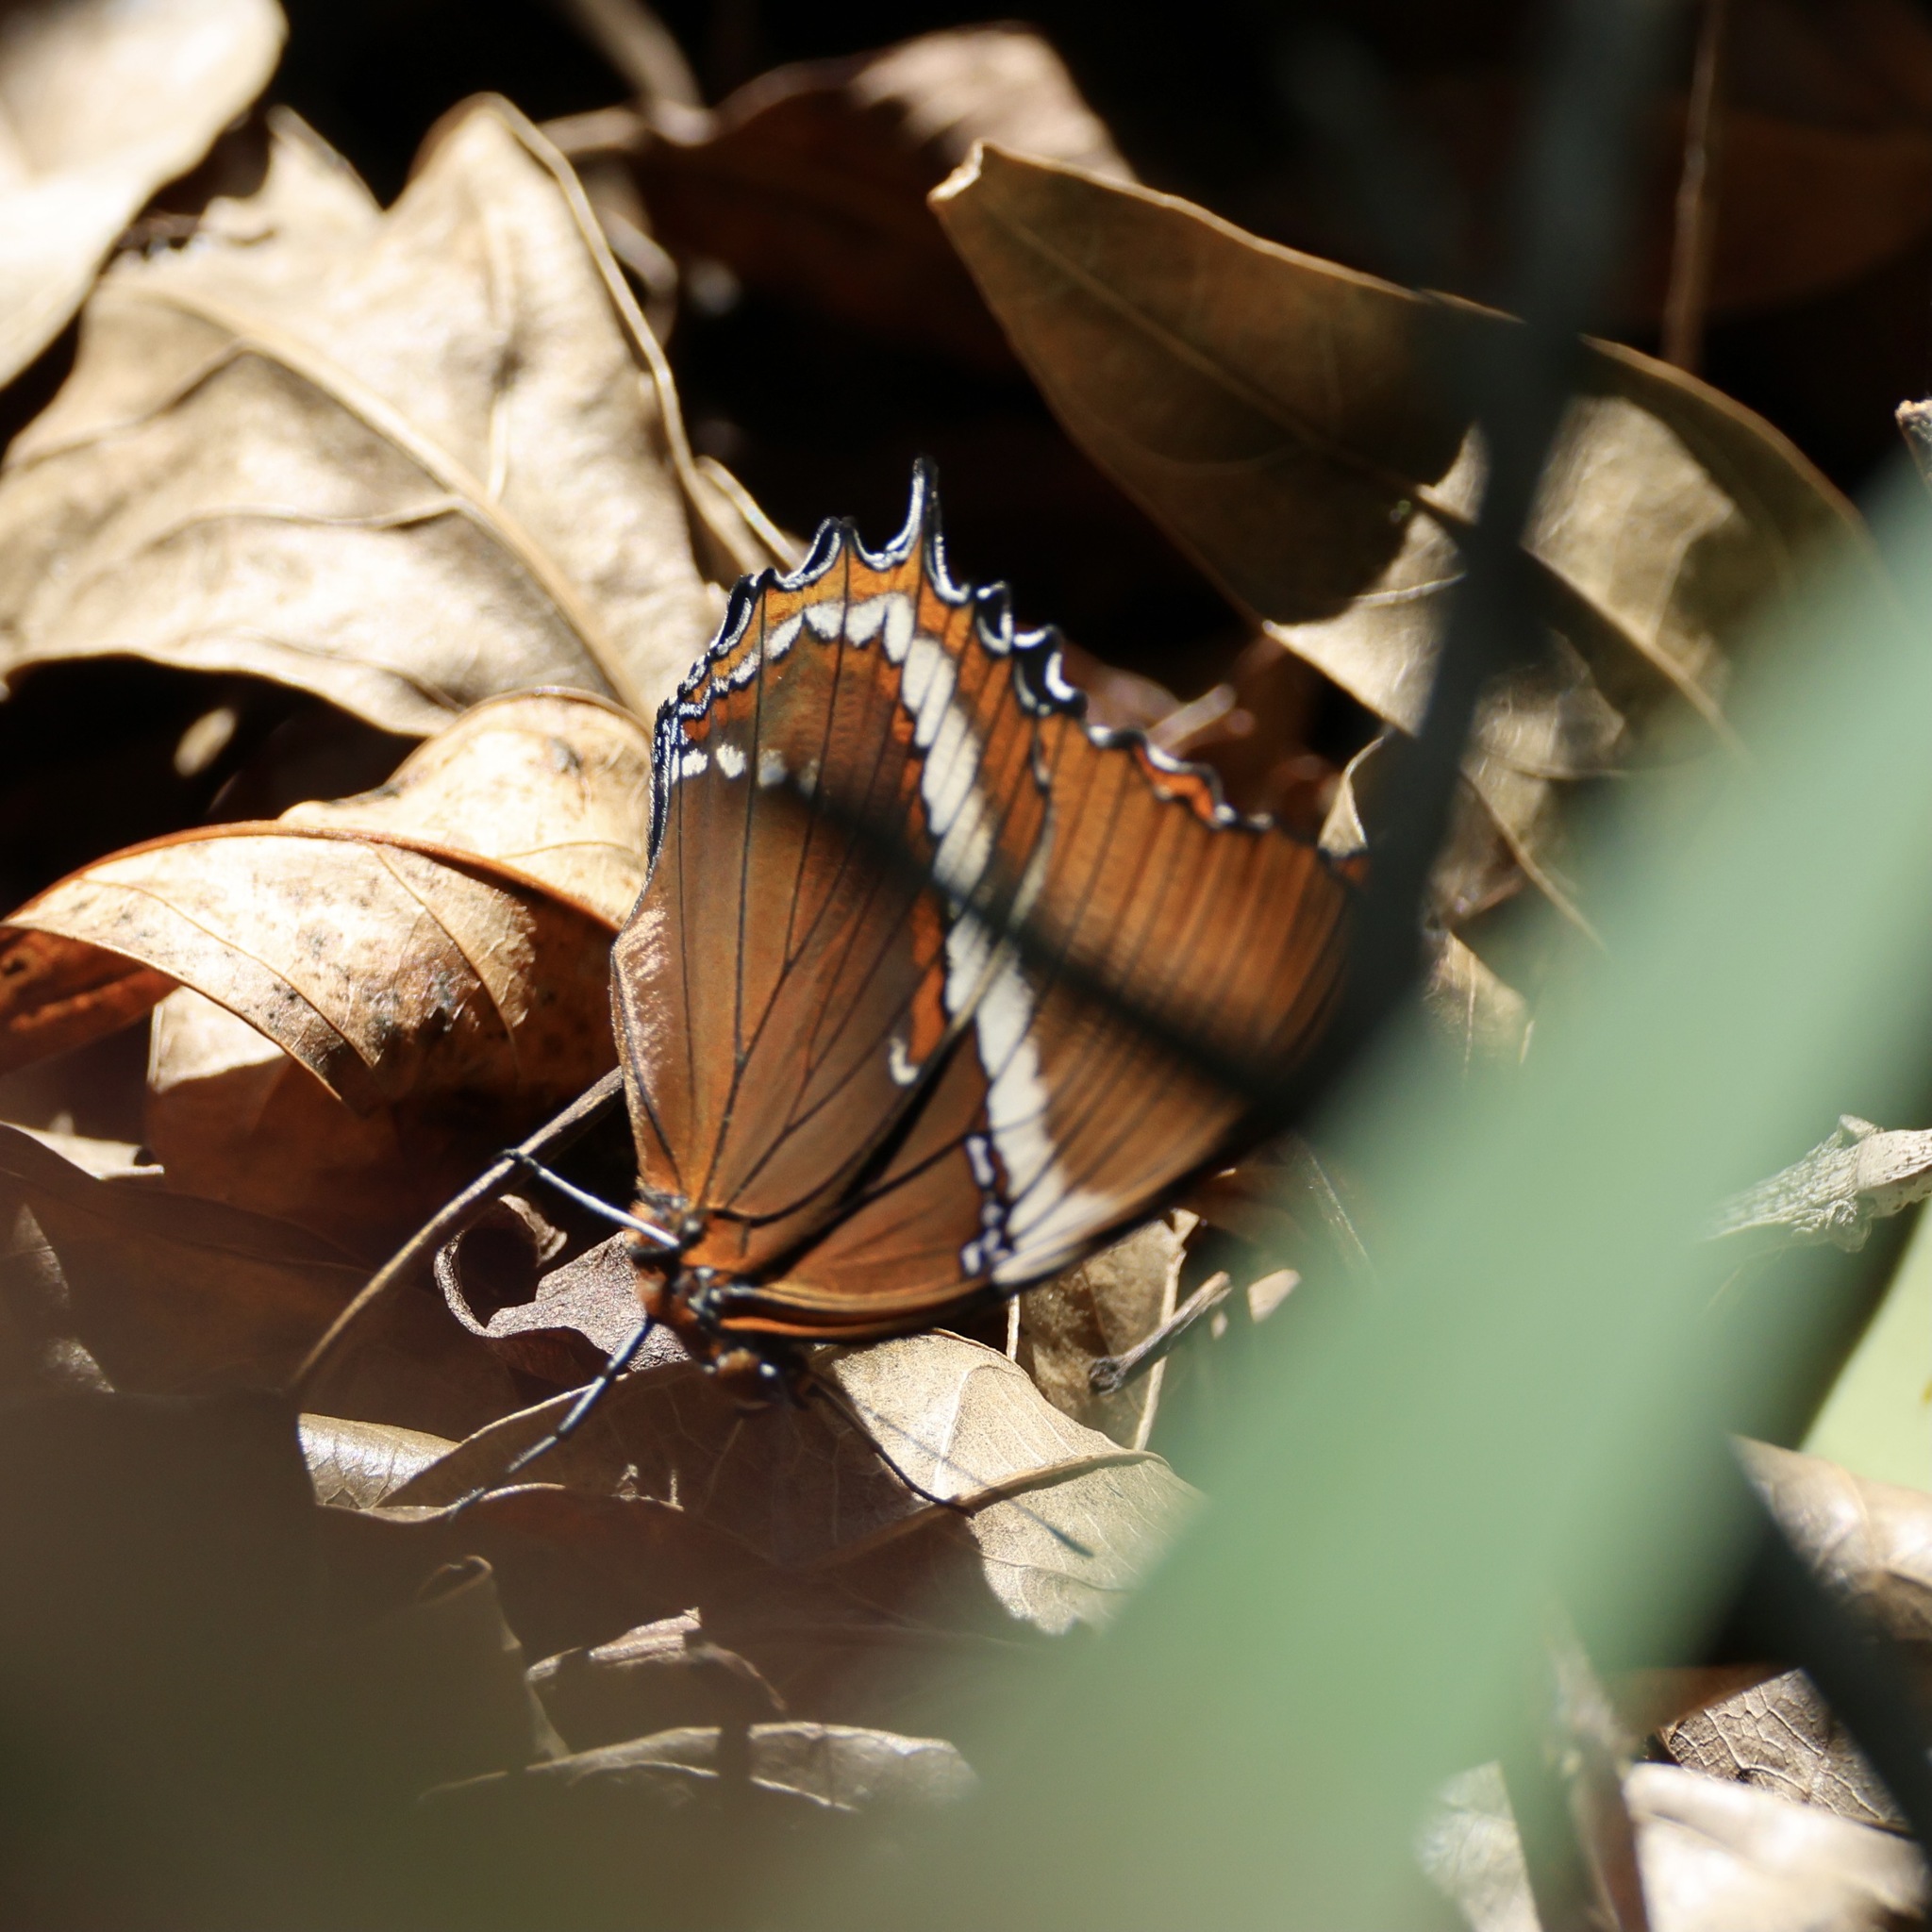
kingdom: Animalia
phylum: Arthropoda
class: Insecta
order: Lepidoptera
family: Nymphalidae
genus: Siproeta
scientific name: Siproeta epaphus
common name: Rusty-tipped page
